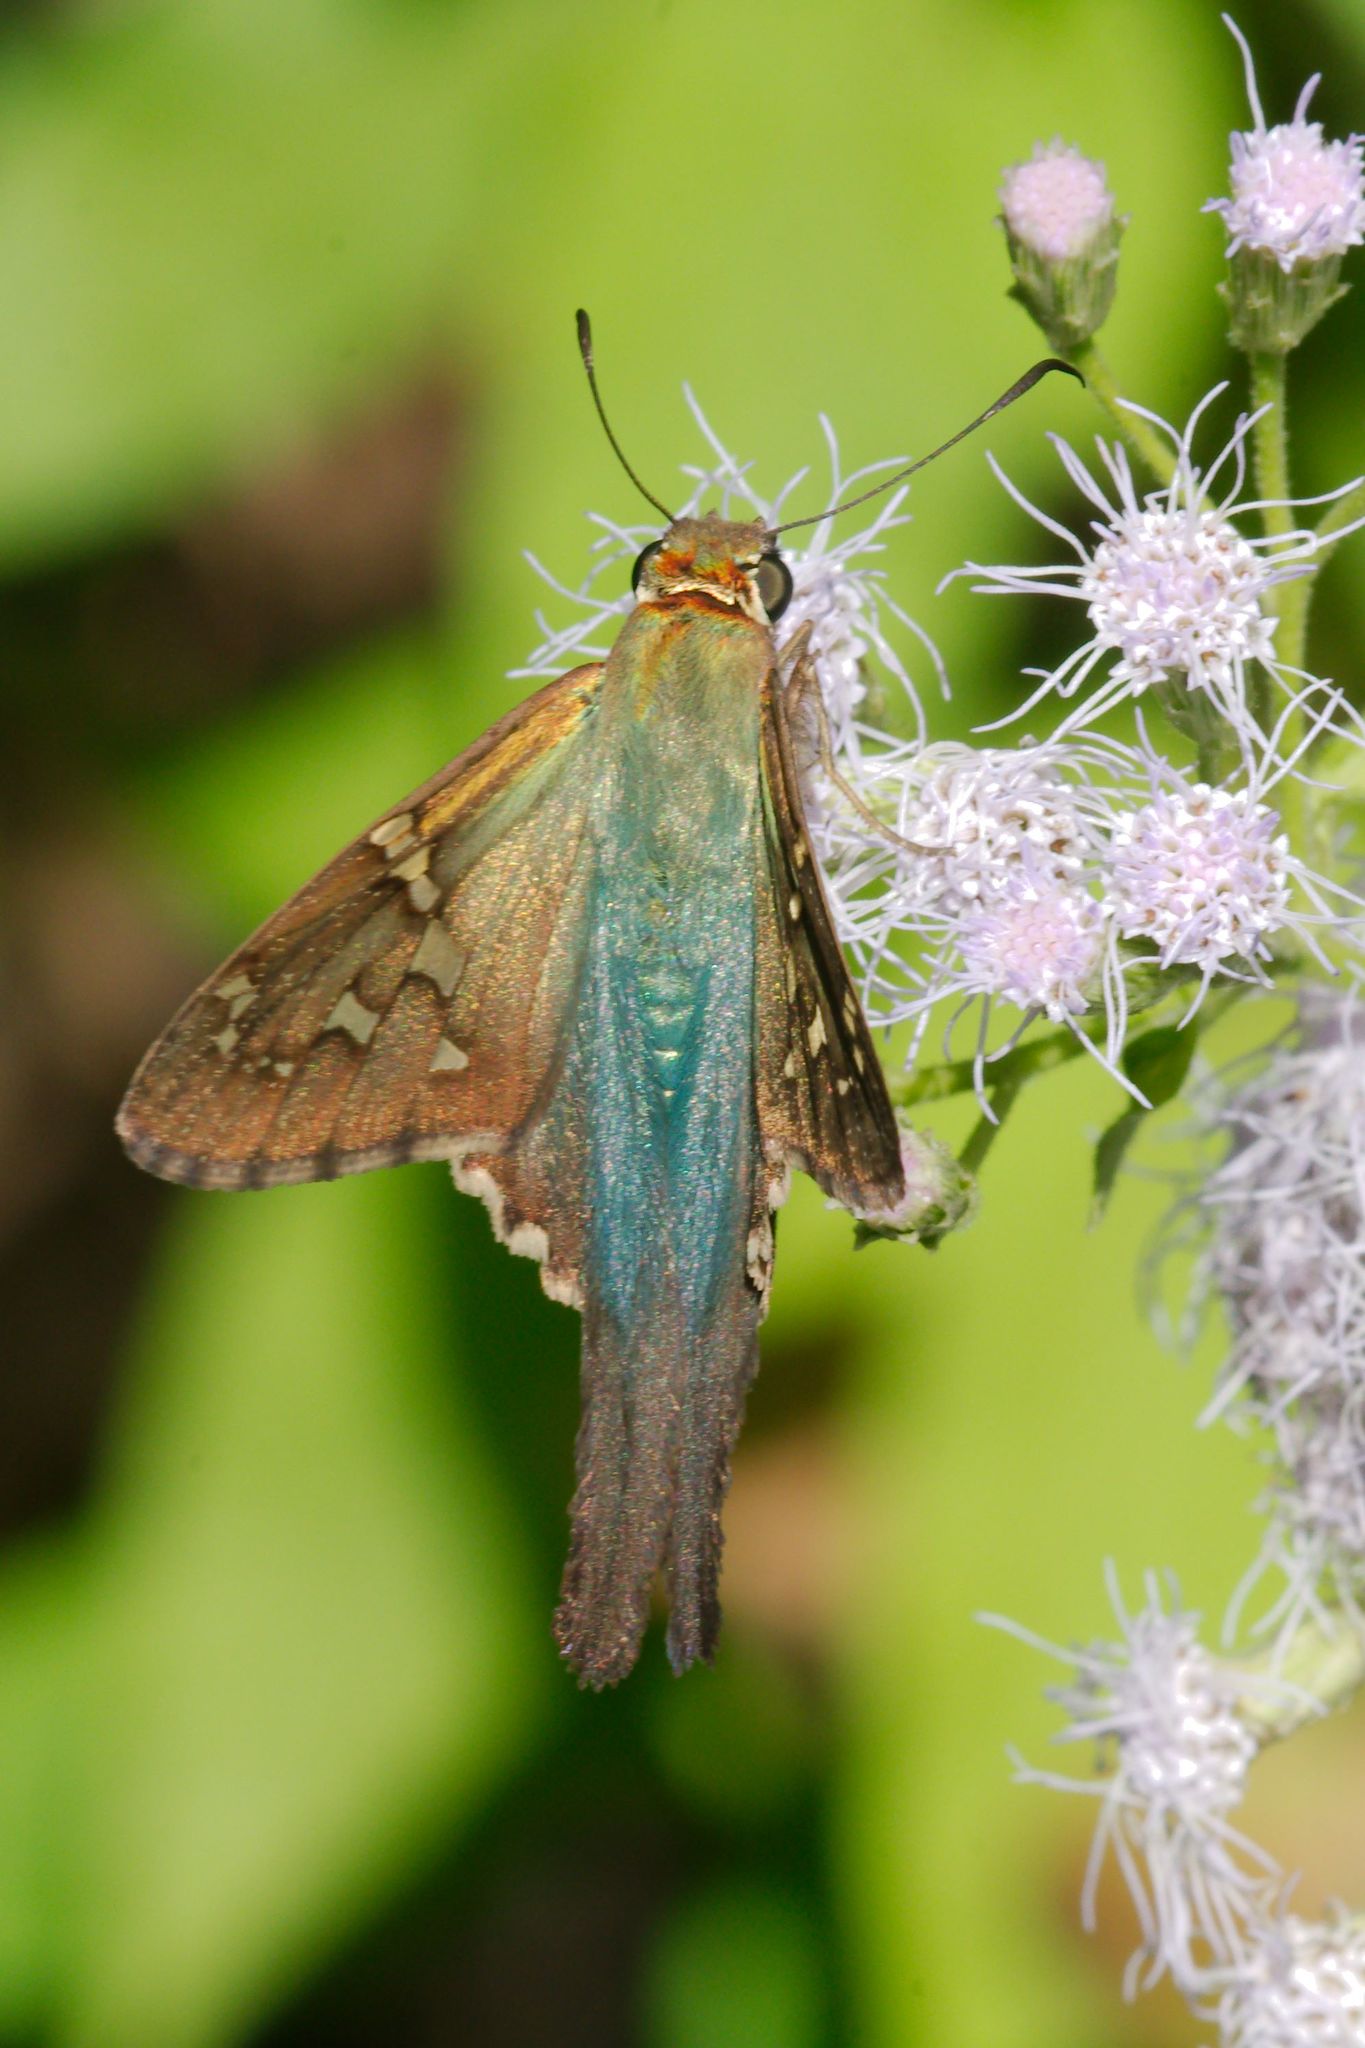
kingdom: Animalia
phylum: Arthropoda
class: Insecta
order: Lepidoptera
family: Hesperiidae
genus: Urbanus
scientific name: Urbanus proteus
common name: Long-tailed skipper
